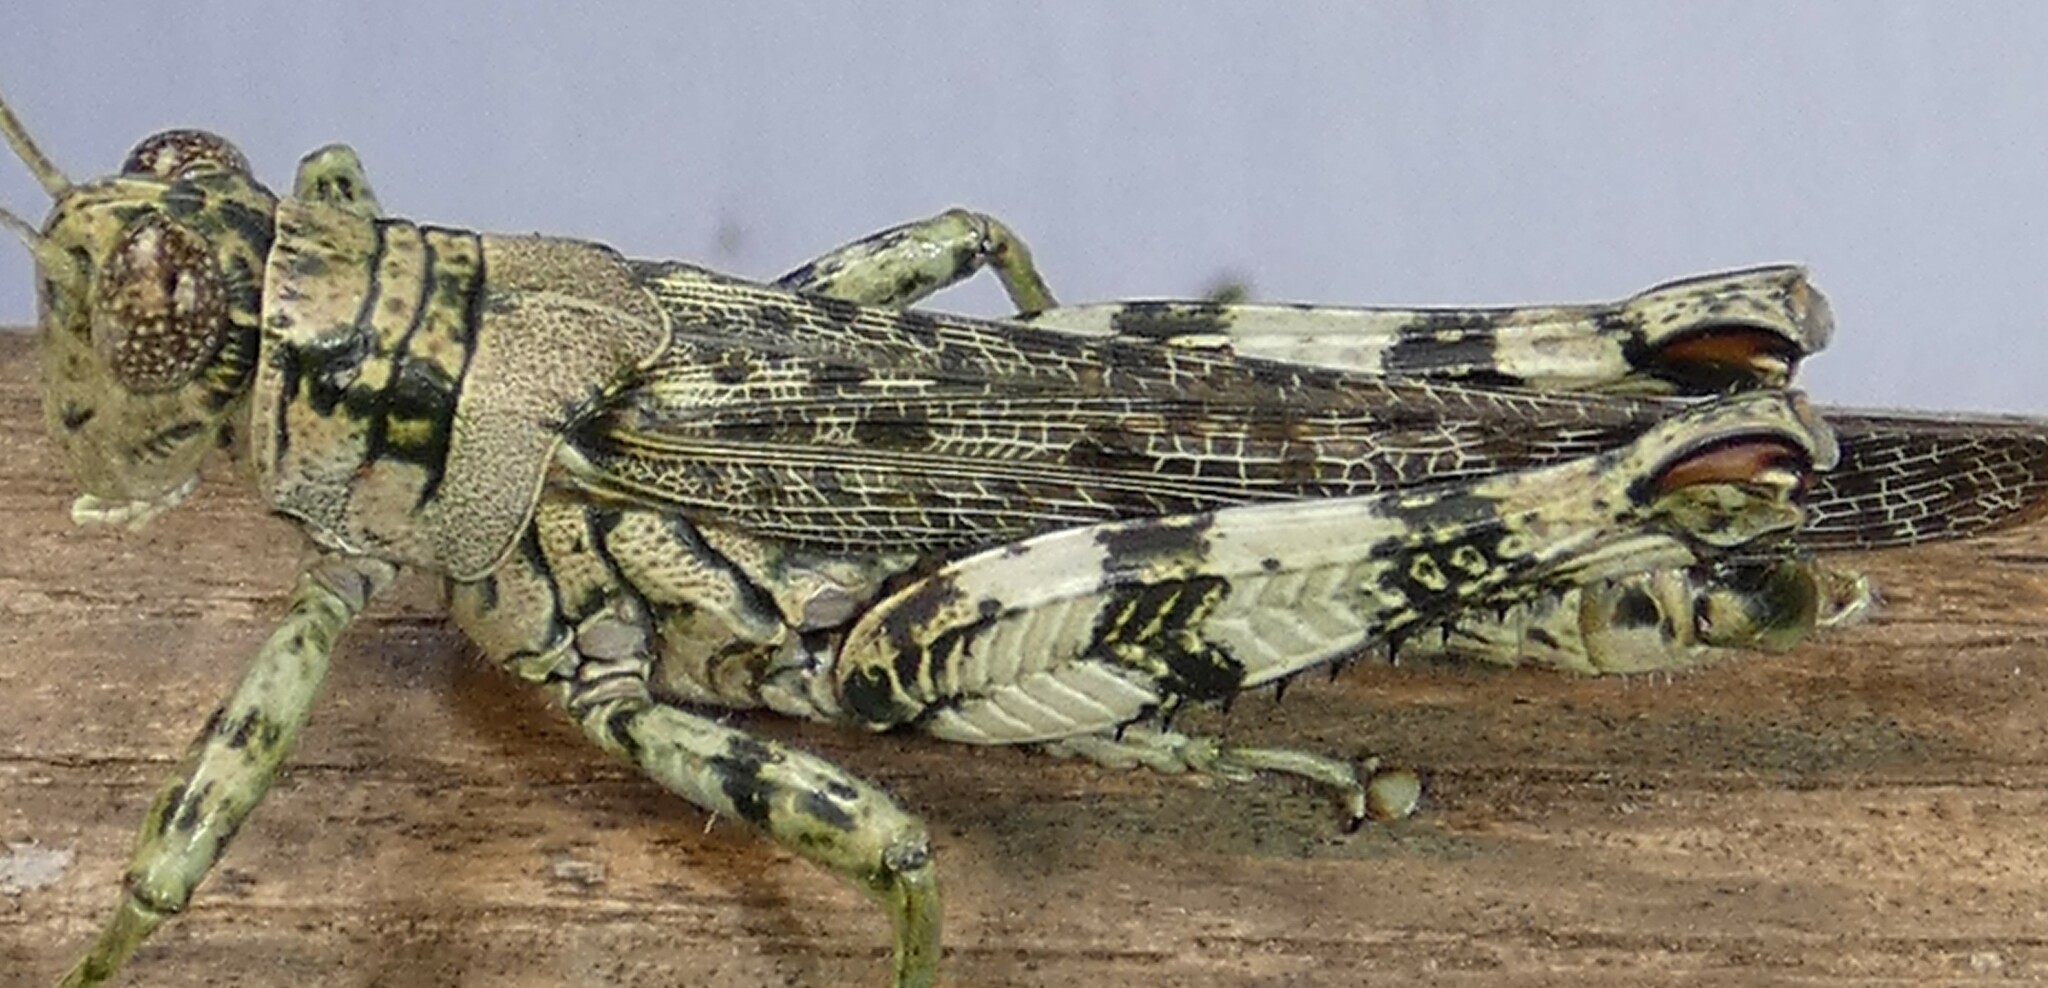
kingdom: Animalia
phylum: Arthropoda
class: Insecta
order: Orthoptera
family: Acrididae
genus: Melanoplus
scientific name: Melanoplus punctulatus
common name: Pine-tree spur-throat grasshopper
